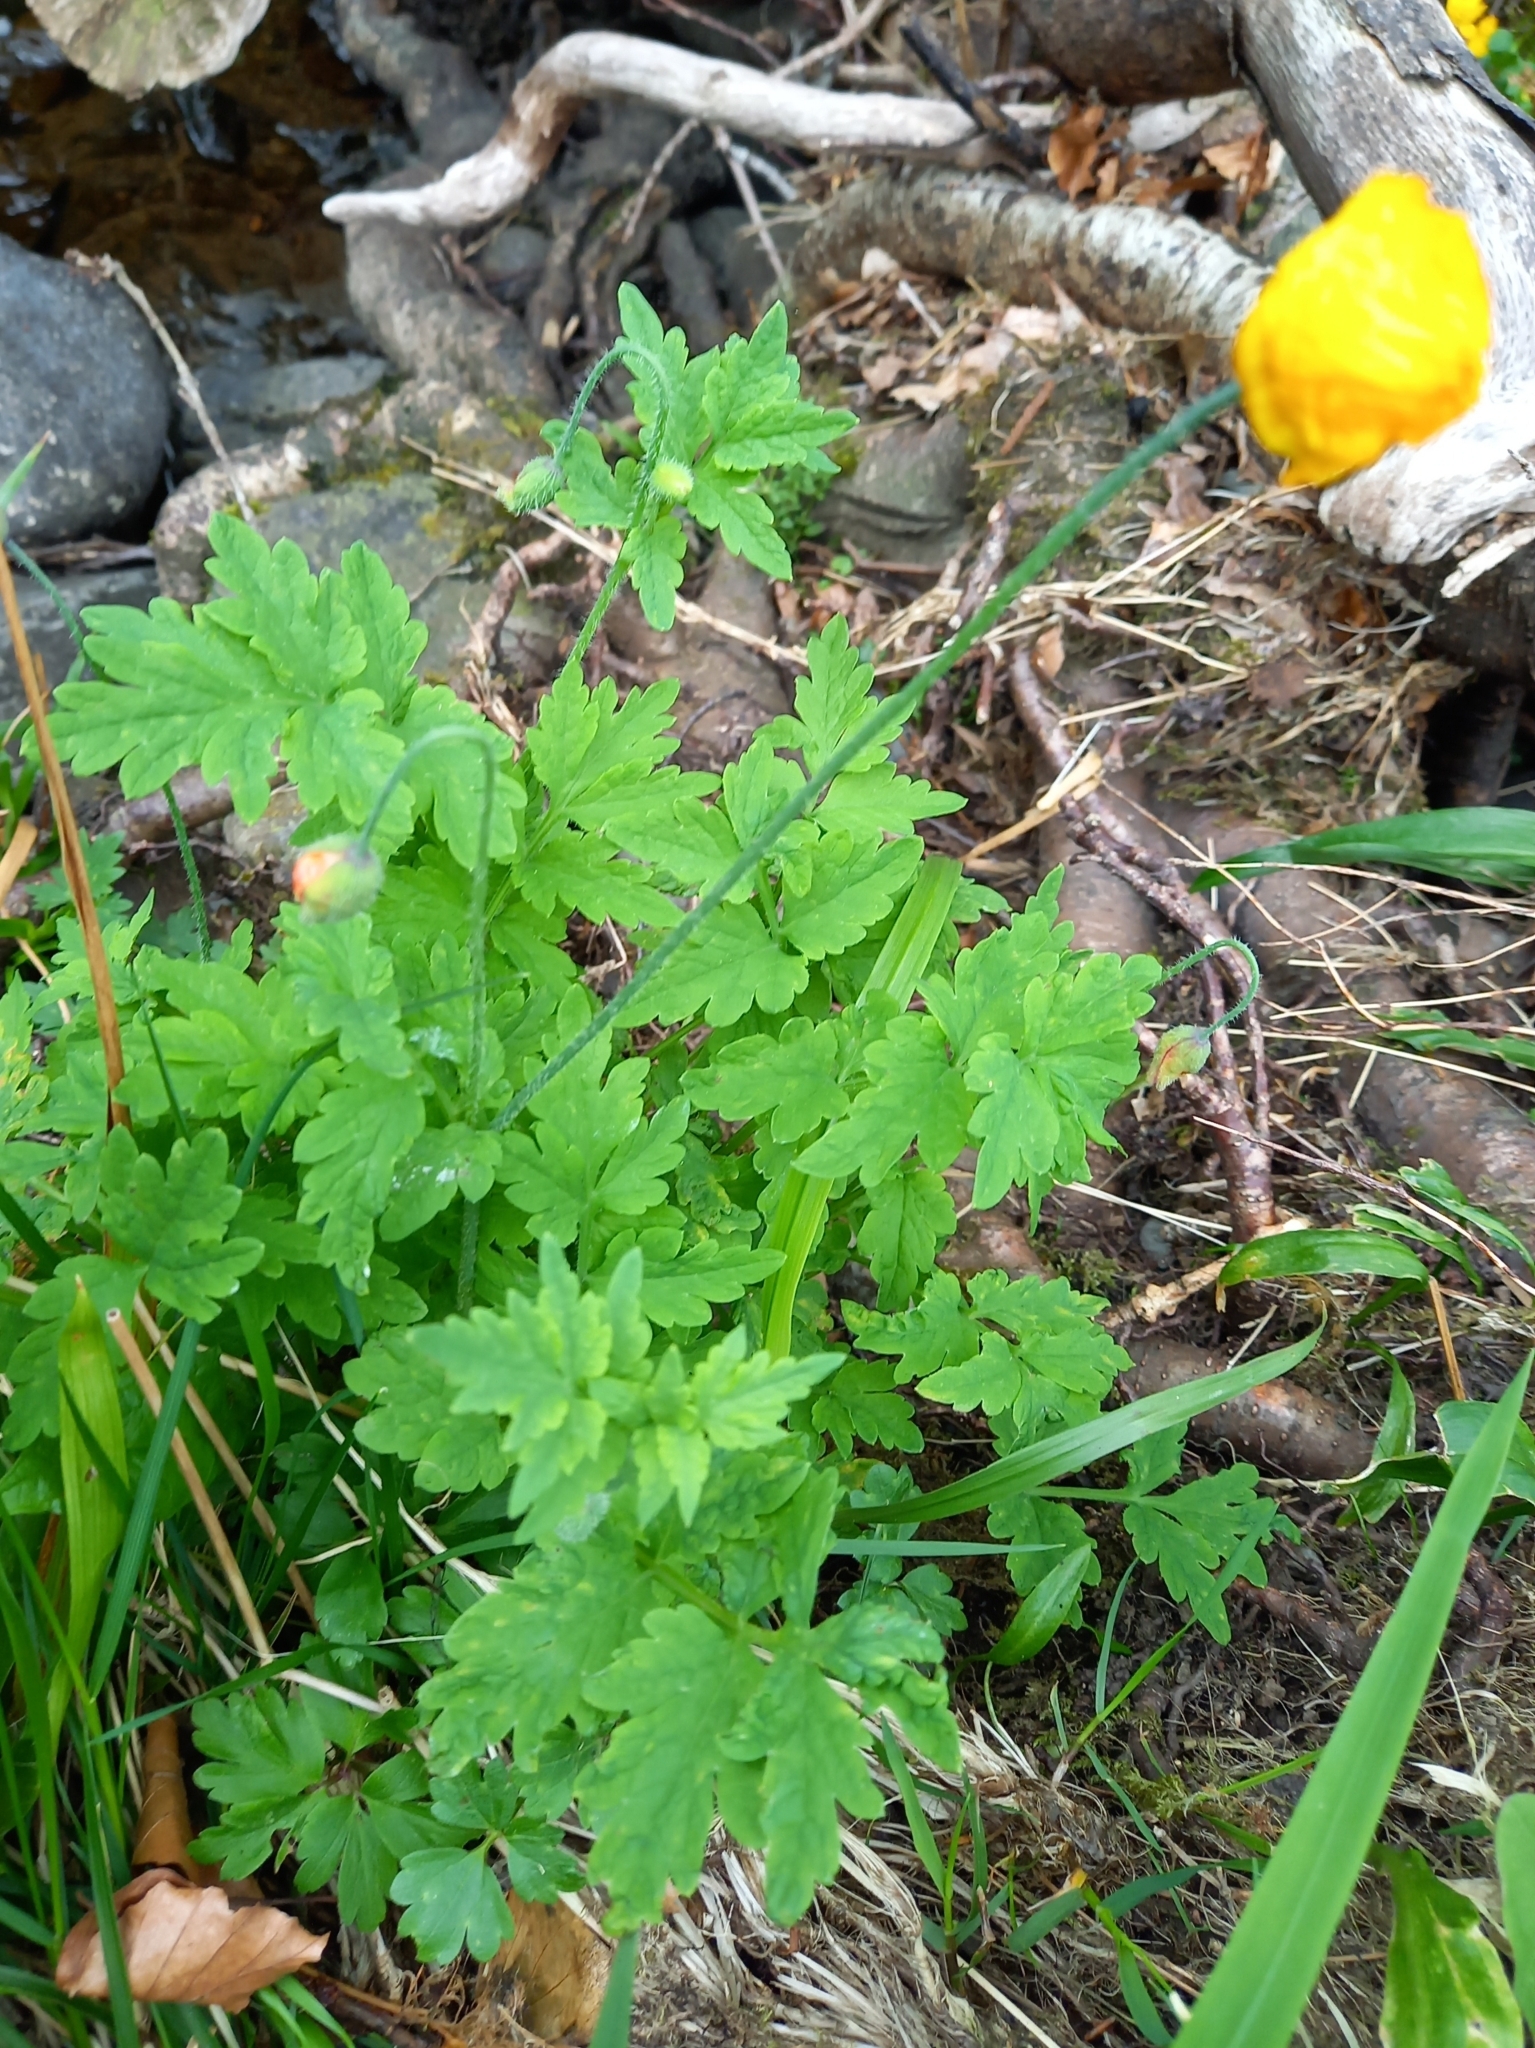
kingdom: Plantae
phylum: Tracheophyta
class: Magnoliopsida
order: Ranunculales
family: Papaveraceae
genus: Papaver
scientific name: Papaver cambricum
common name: Poppy
